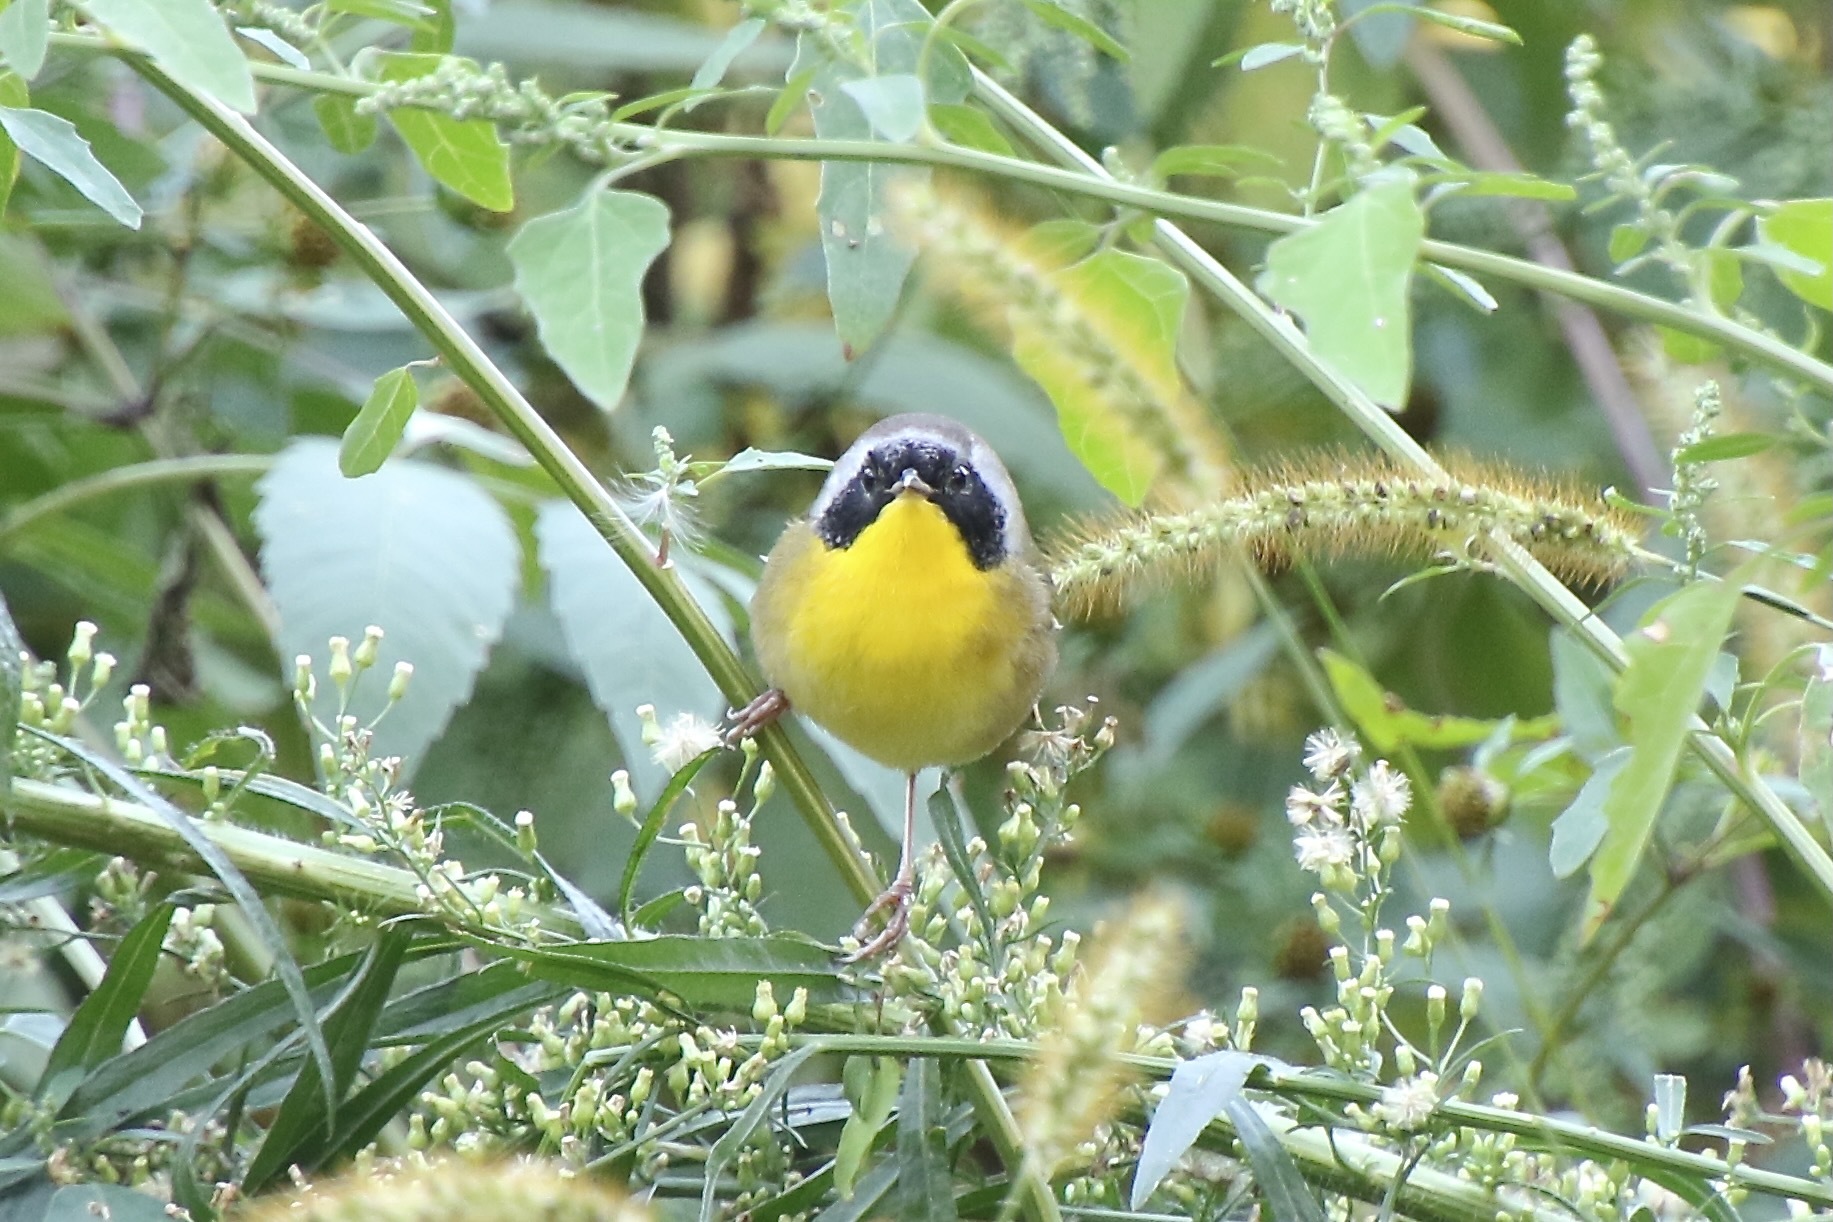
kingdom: Animalia
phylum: Chordata
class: Aves
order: Passeriformes
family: Parulidae
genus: Geothlypis
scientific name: Geothlypis trichas
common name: Common yellowthroat
